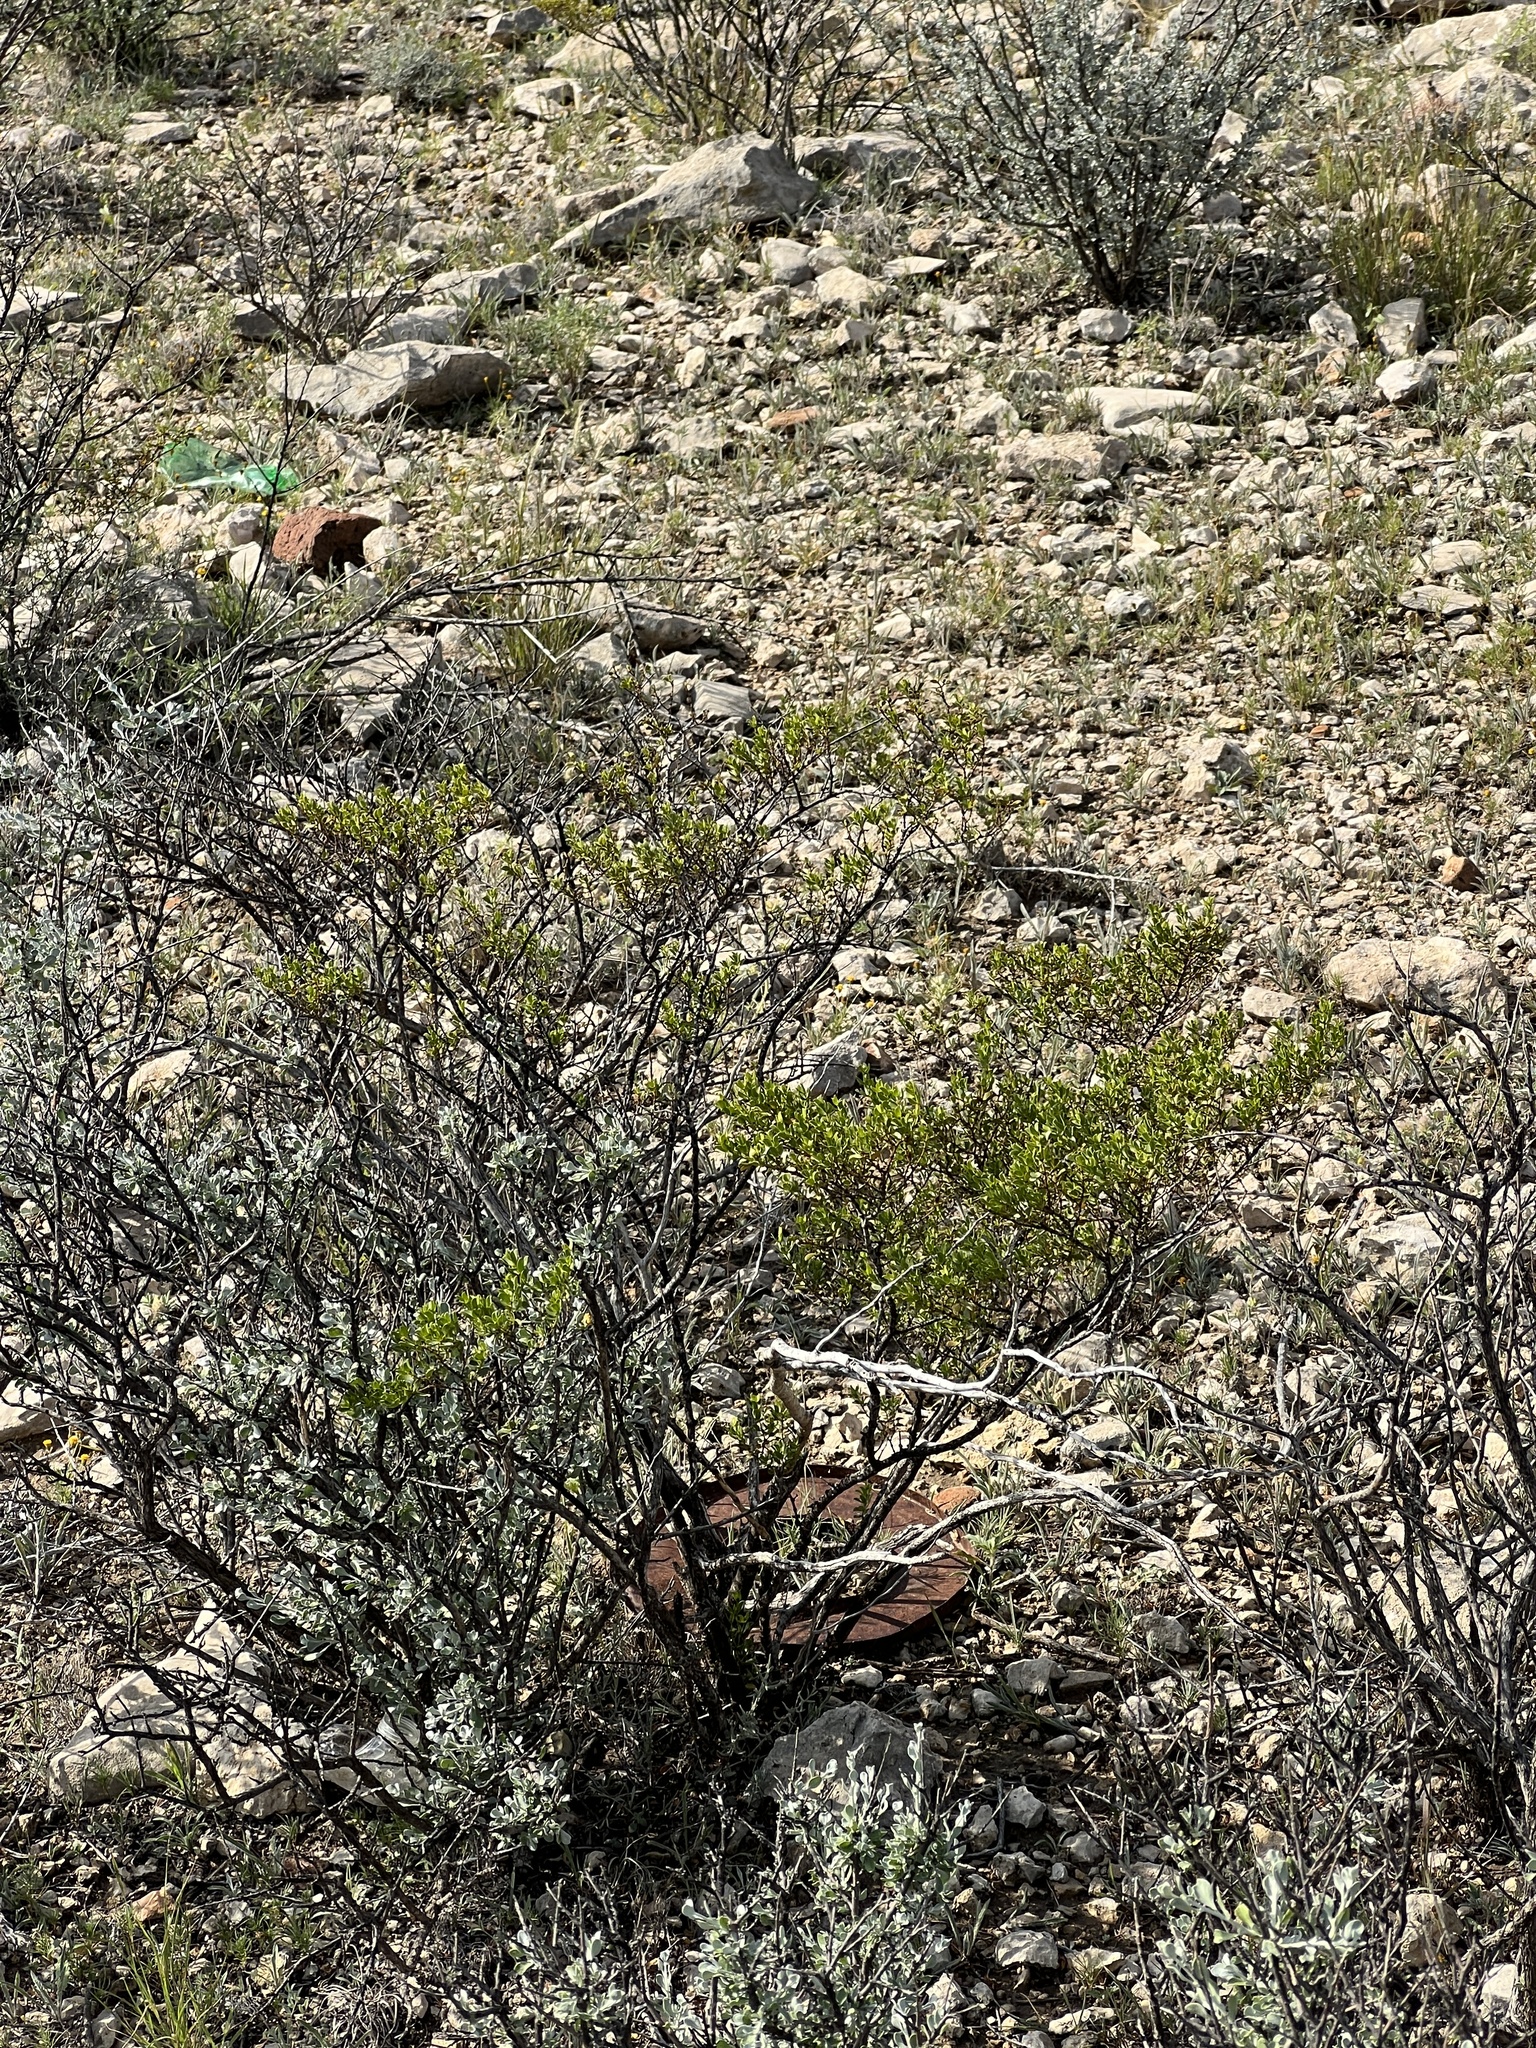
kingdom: Plantae
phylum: Tracheophyta
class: Magnoliopsida
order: Zygophyllales
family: Zygophyllaceae
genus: Larrea
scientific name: Larrea tridentata
